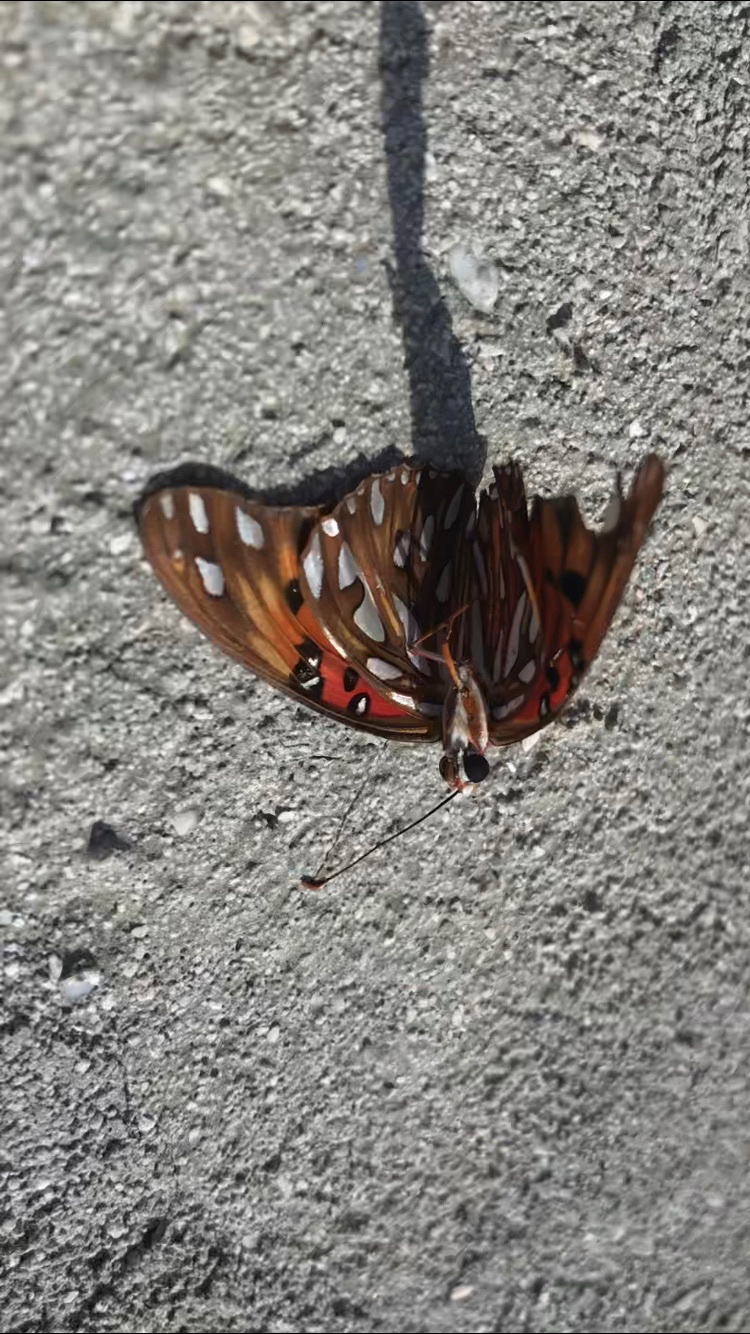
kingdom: Animalia
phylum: Arthropoda
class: Insecta
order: Lepidoptera
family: Nymphalidae
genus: Dione
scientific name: Dione vanillae
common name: Gulf fritillary
